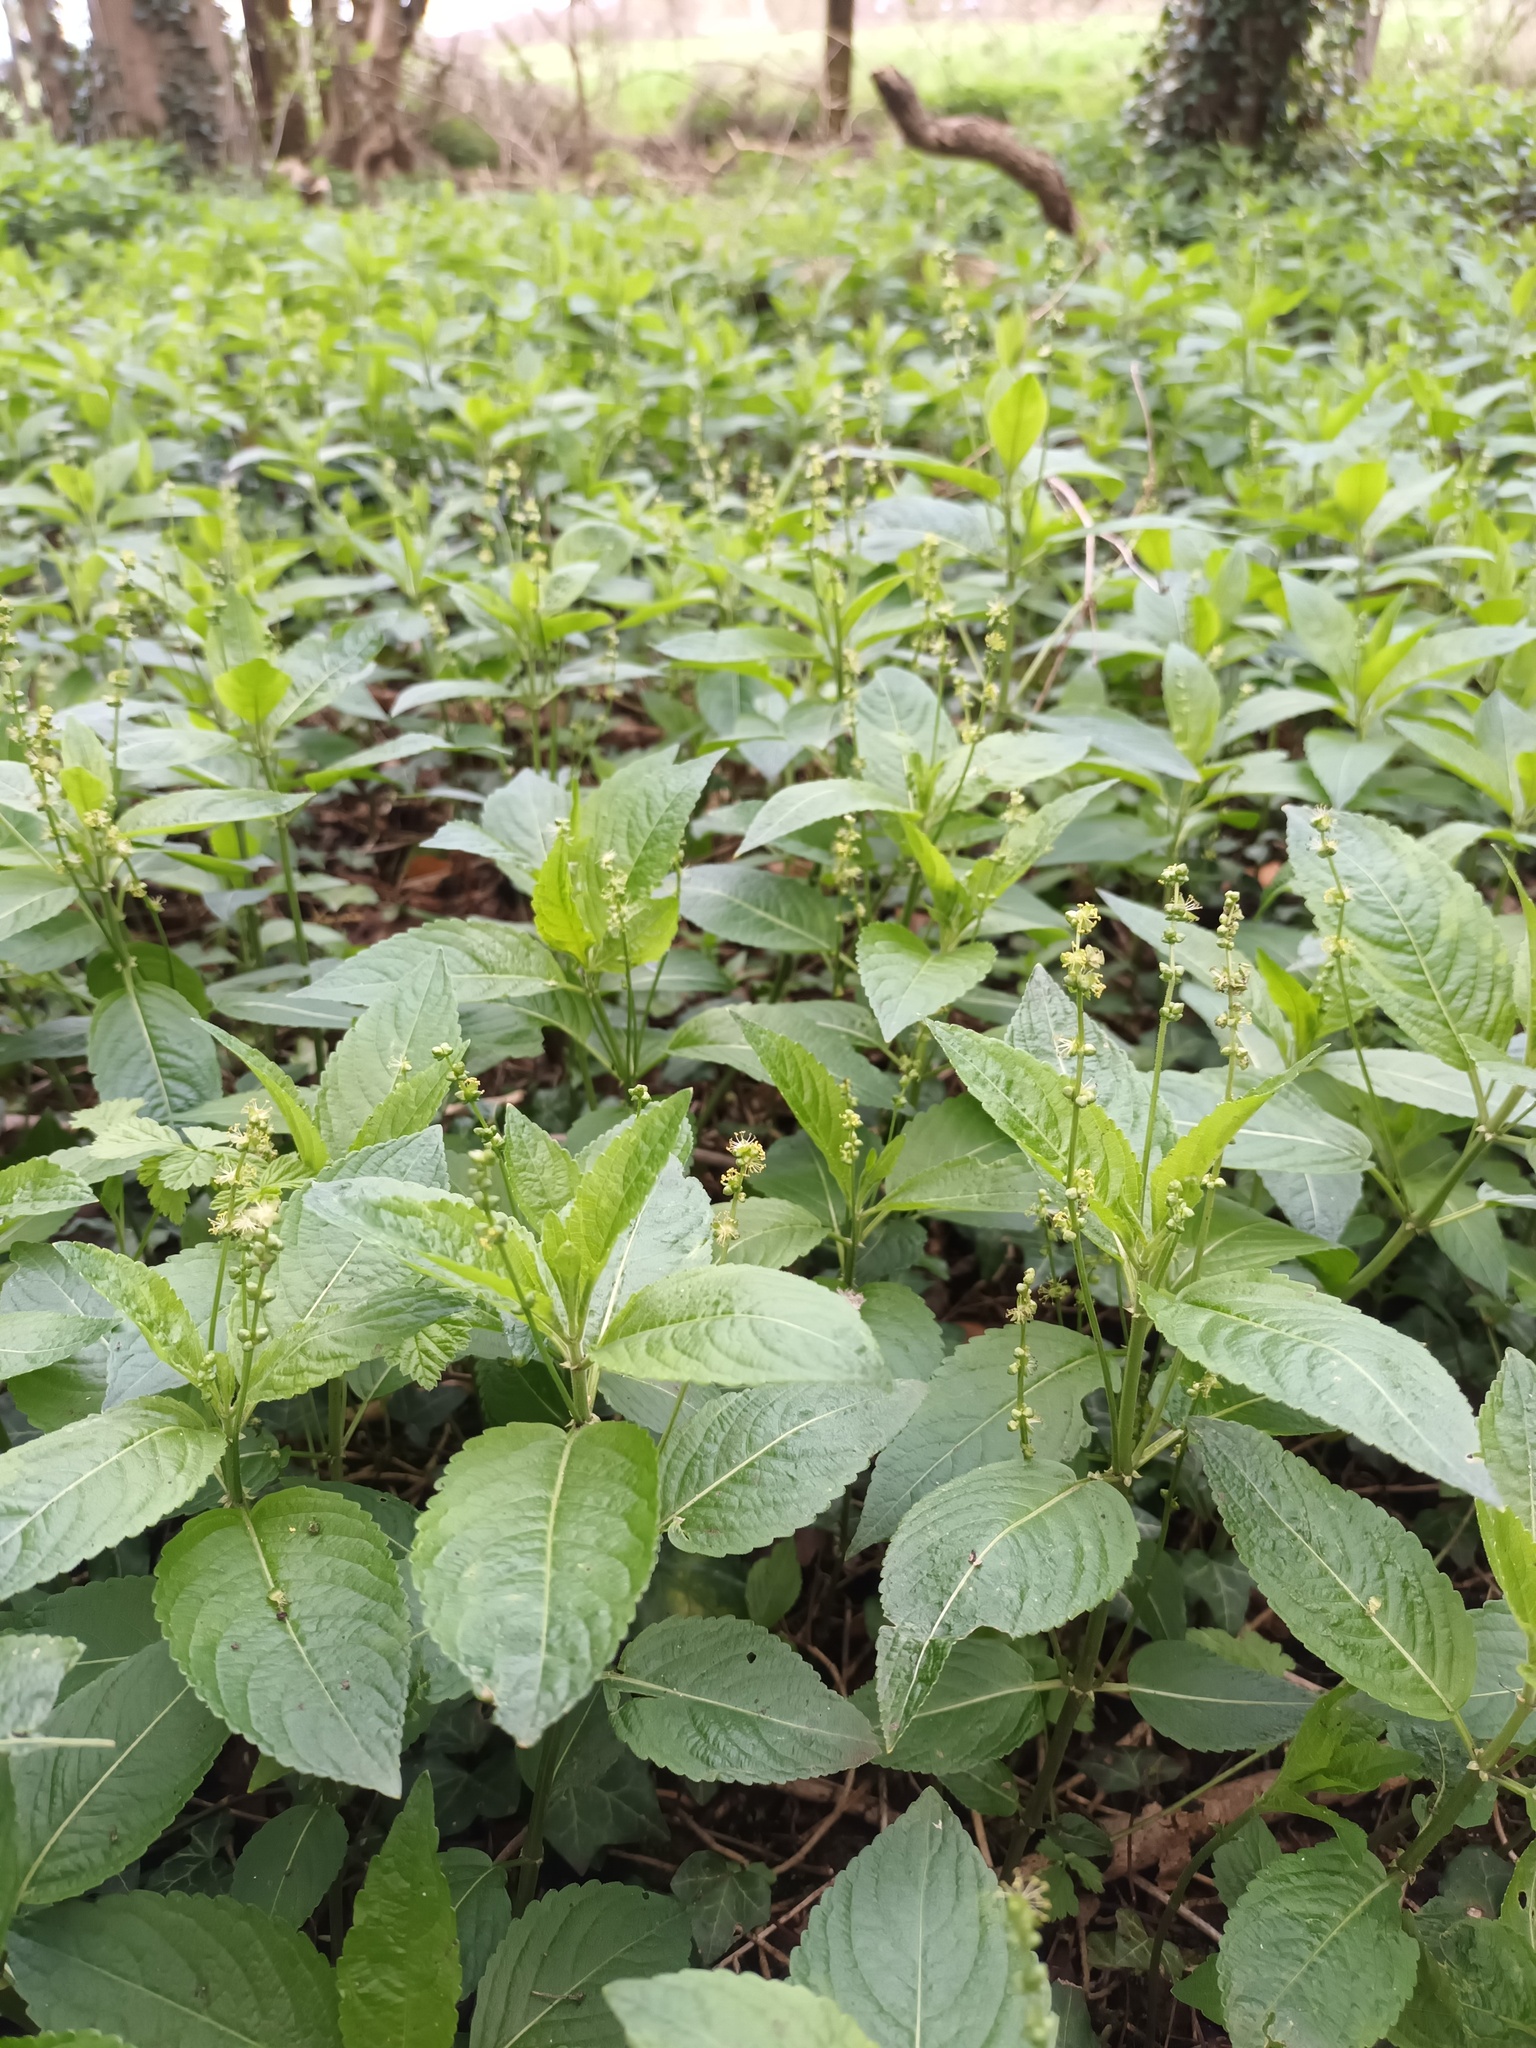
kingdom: Plantae
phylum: Tracheophyta
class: Magnoliopsida
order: Malpighiales
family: Euphorbiaceae
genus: Mercurialis
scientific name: Mercurialis perennis
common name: Dog mercury
